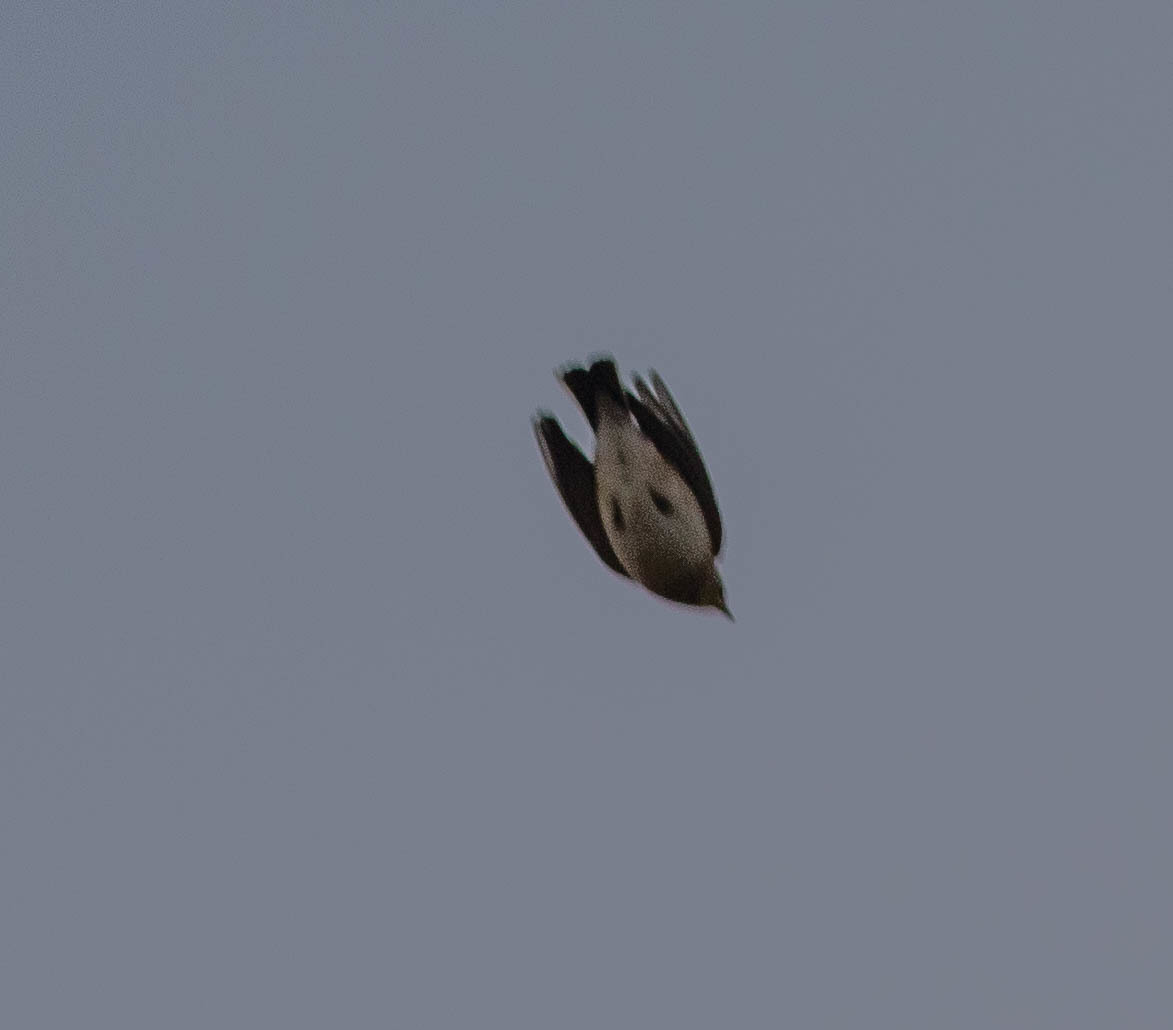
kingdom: Animalia
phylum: Chordata
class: Aves
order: Passeriformes
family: Alaudidae
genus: Eremophila
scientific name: Eremophila alpestris
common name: Horned lark
